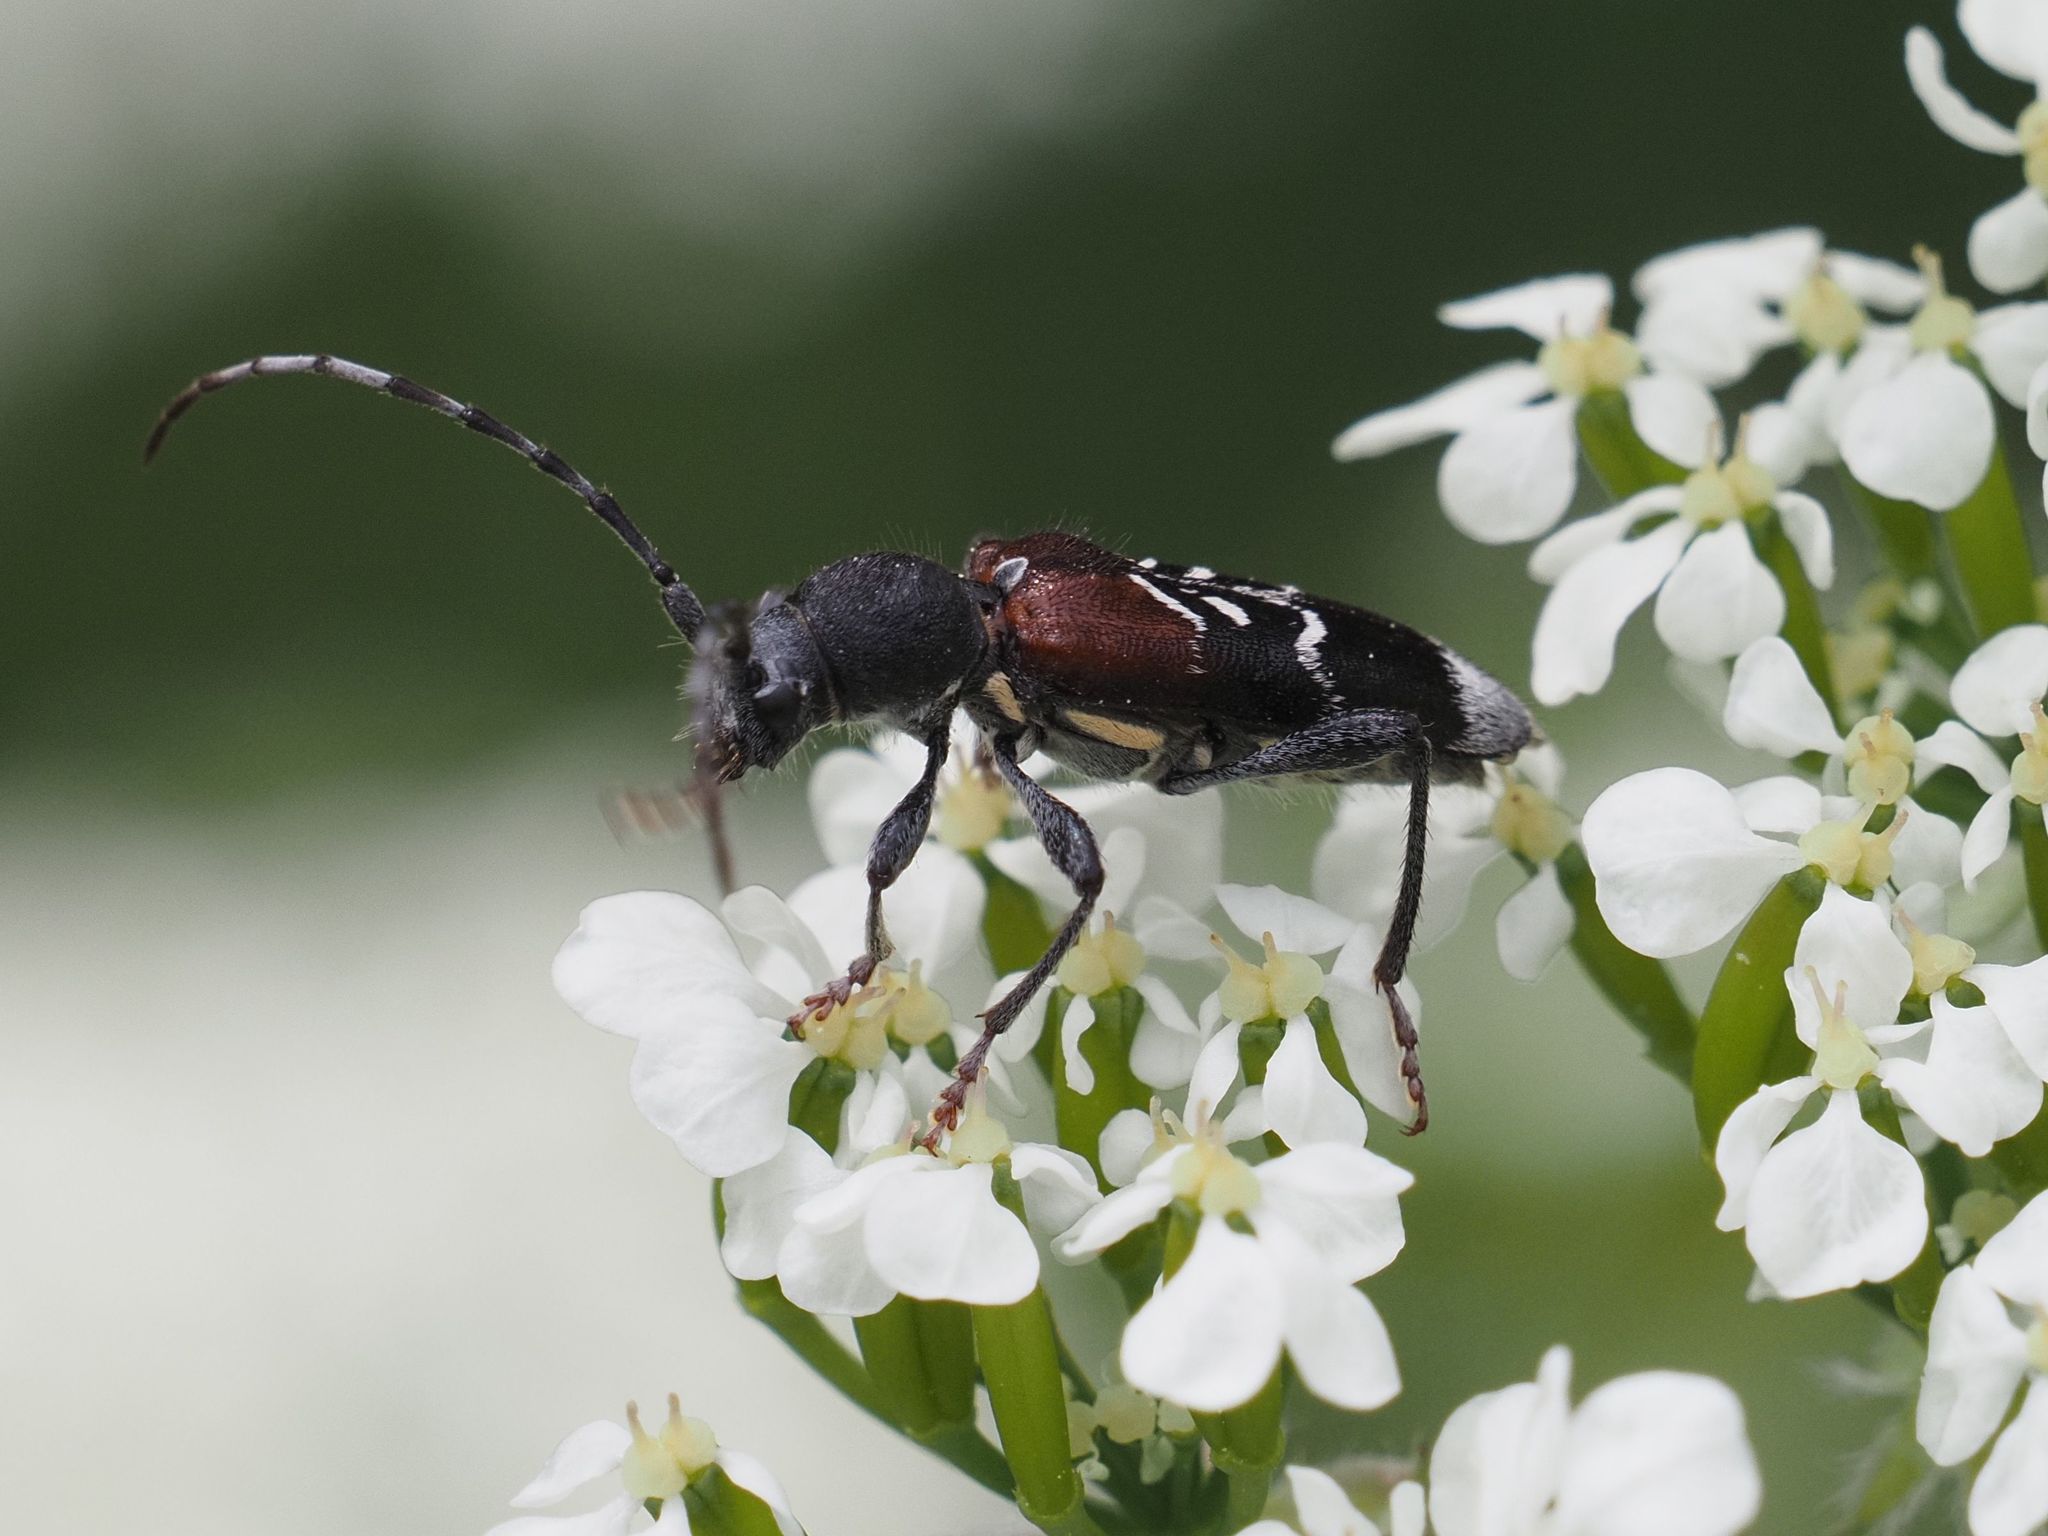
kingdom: Animalia
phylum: Arthropoda
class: Insecta
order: Coleoptera
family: Cerambycidae
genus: Anaglyptus
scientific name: Anaglyptus mysticus
